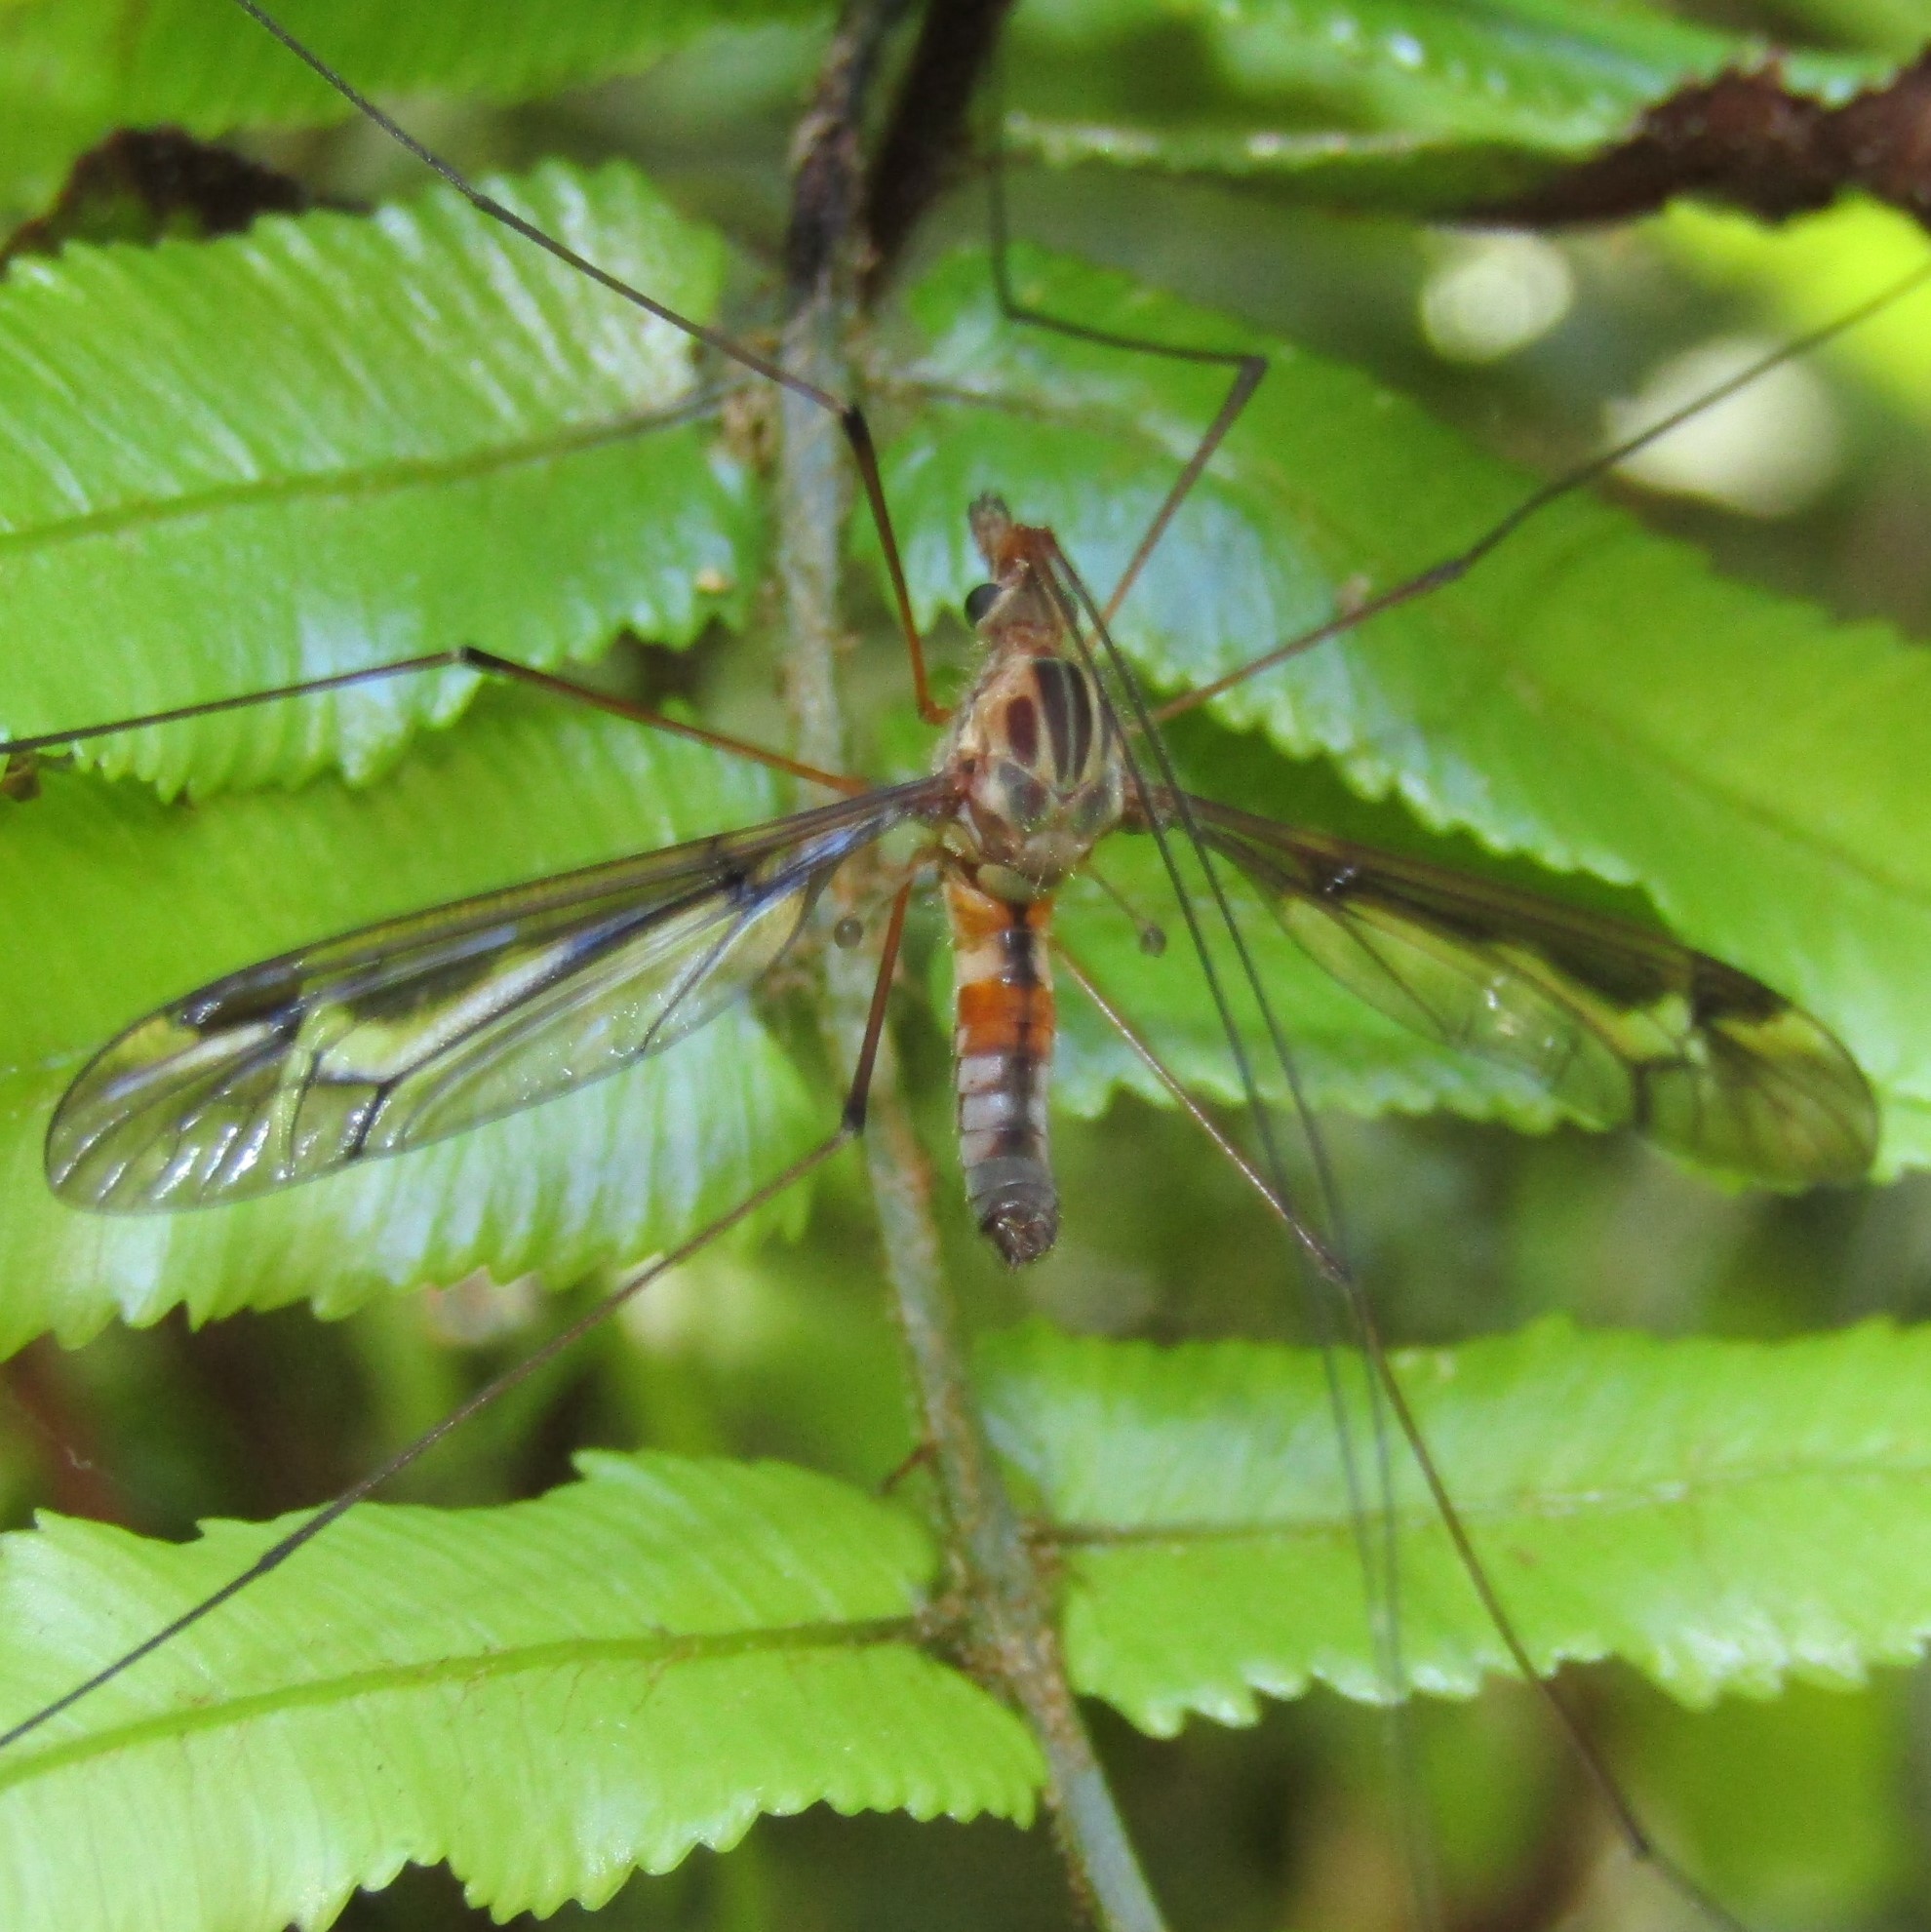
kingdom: Animalia
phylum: Arthropoda
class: Insecta
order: Diptera
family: Tipulidae
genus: Leptotarsus
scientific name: Leptotarsus lunatus
